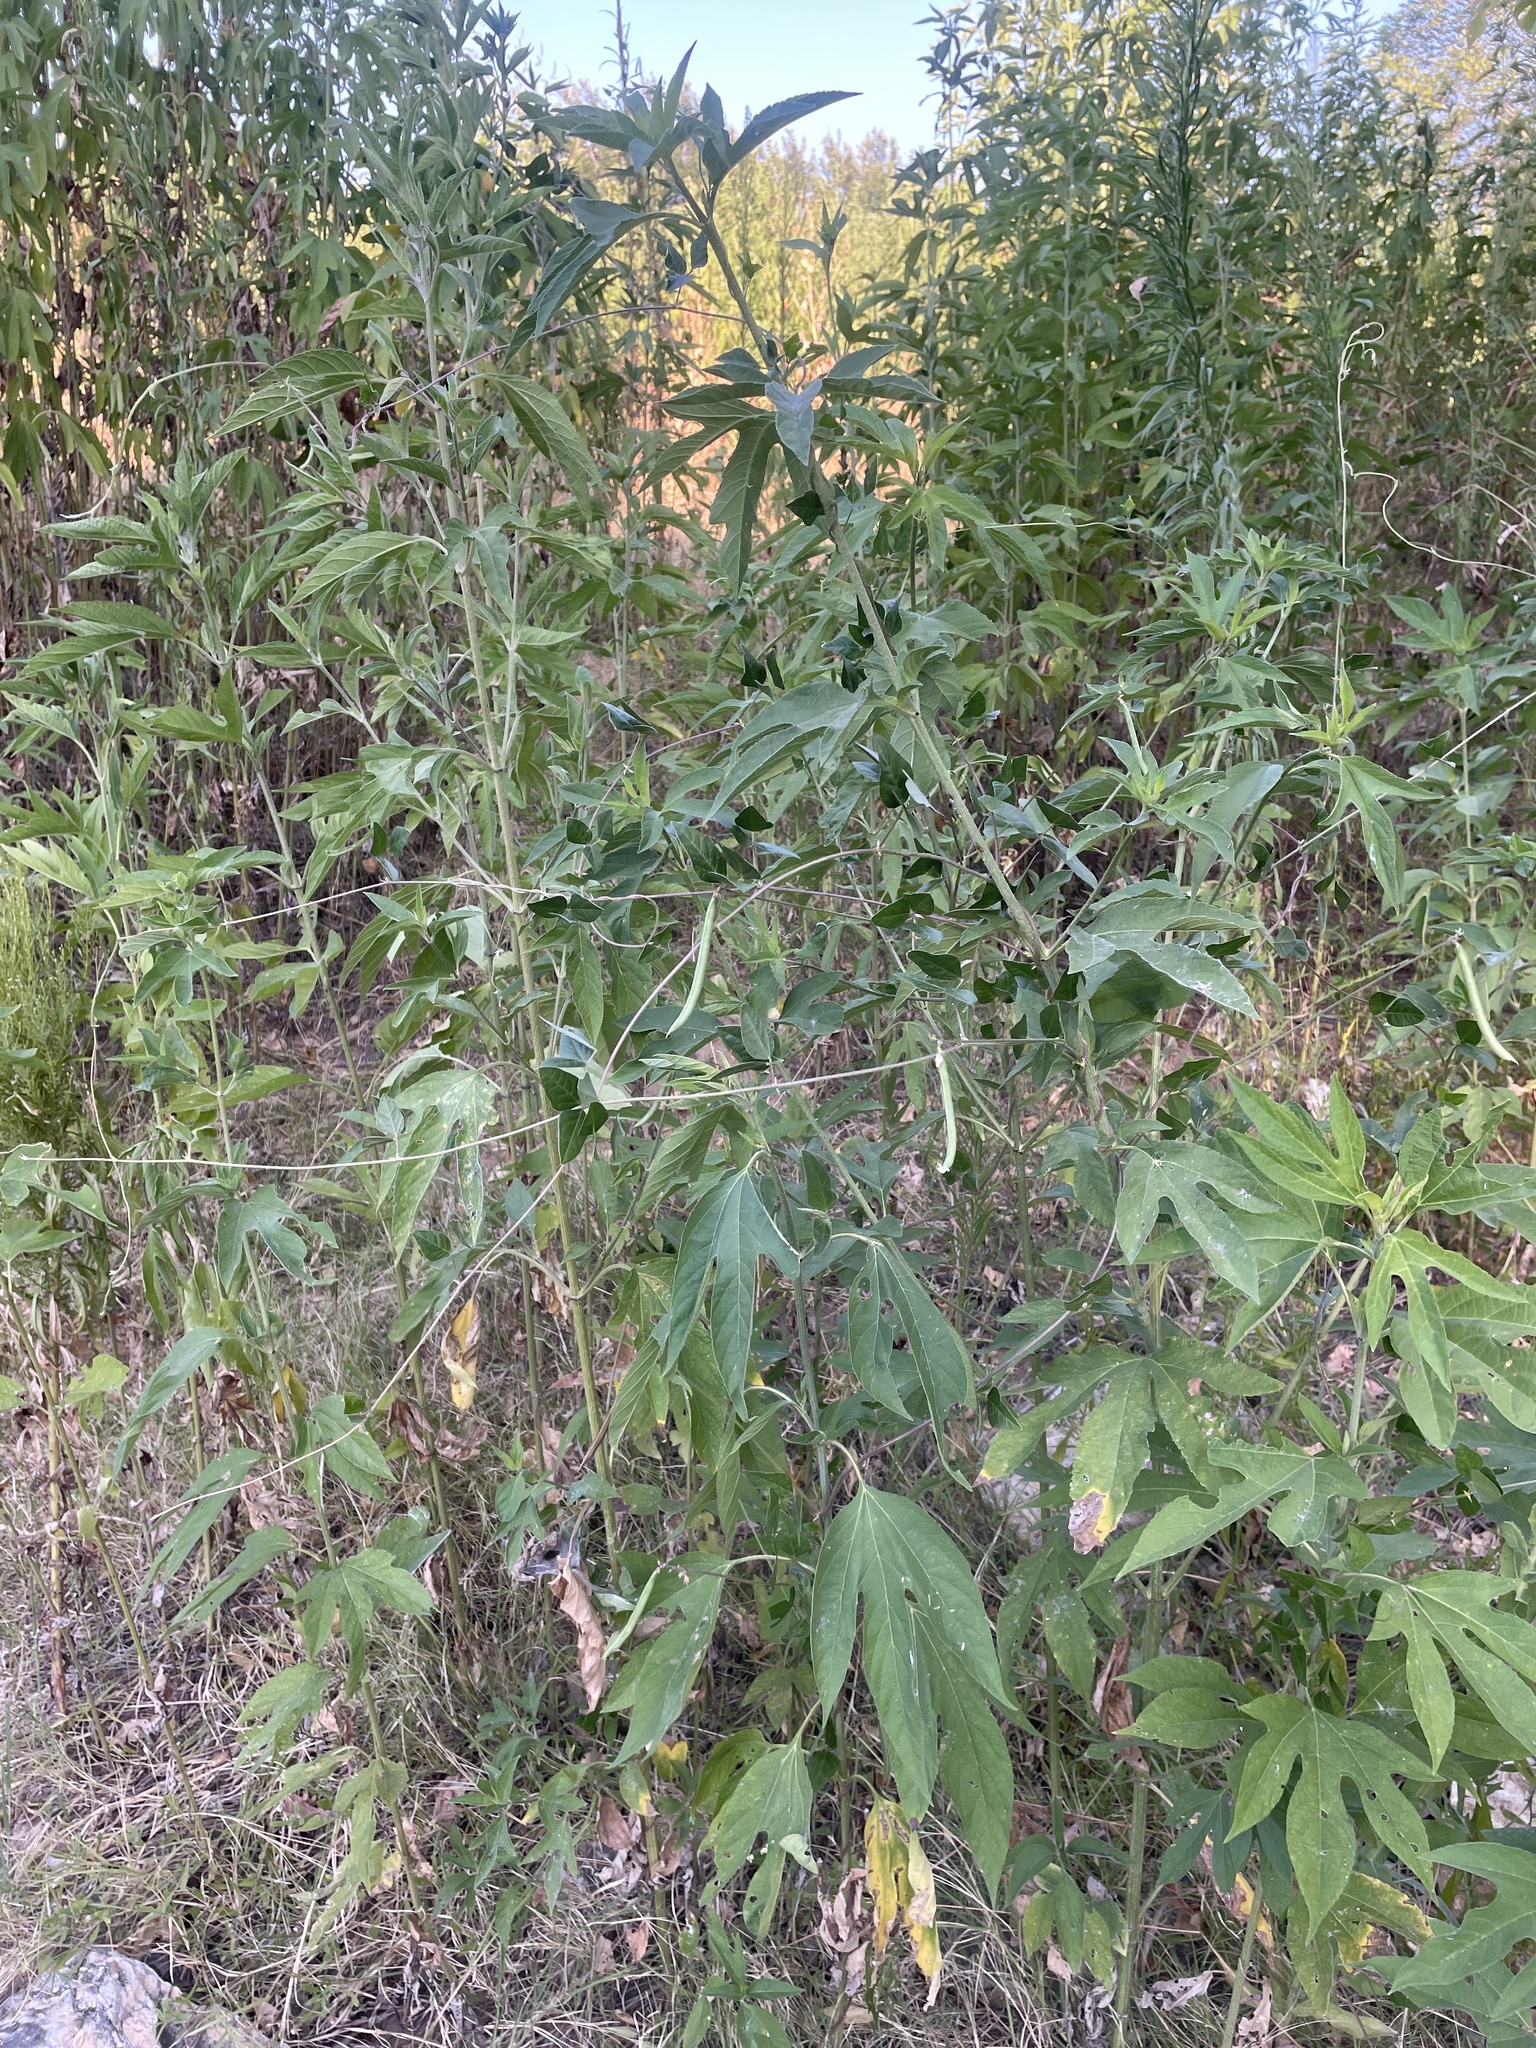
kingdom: Plantae
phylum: Tracheophyta
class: Magnoliopsida
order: Fabales
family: Fabaceae
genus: Strophostyles
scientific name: Strophostyles helvola
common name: Trailing wild bean
